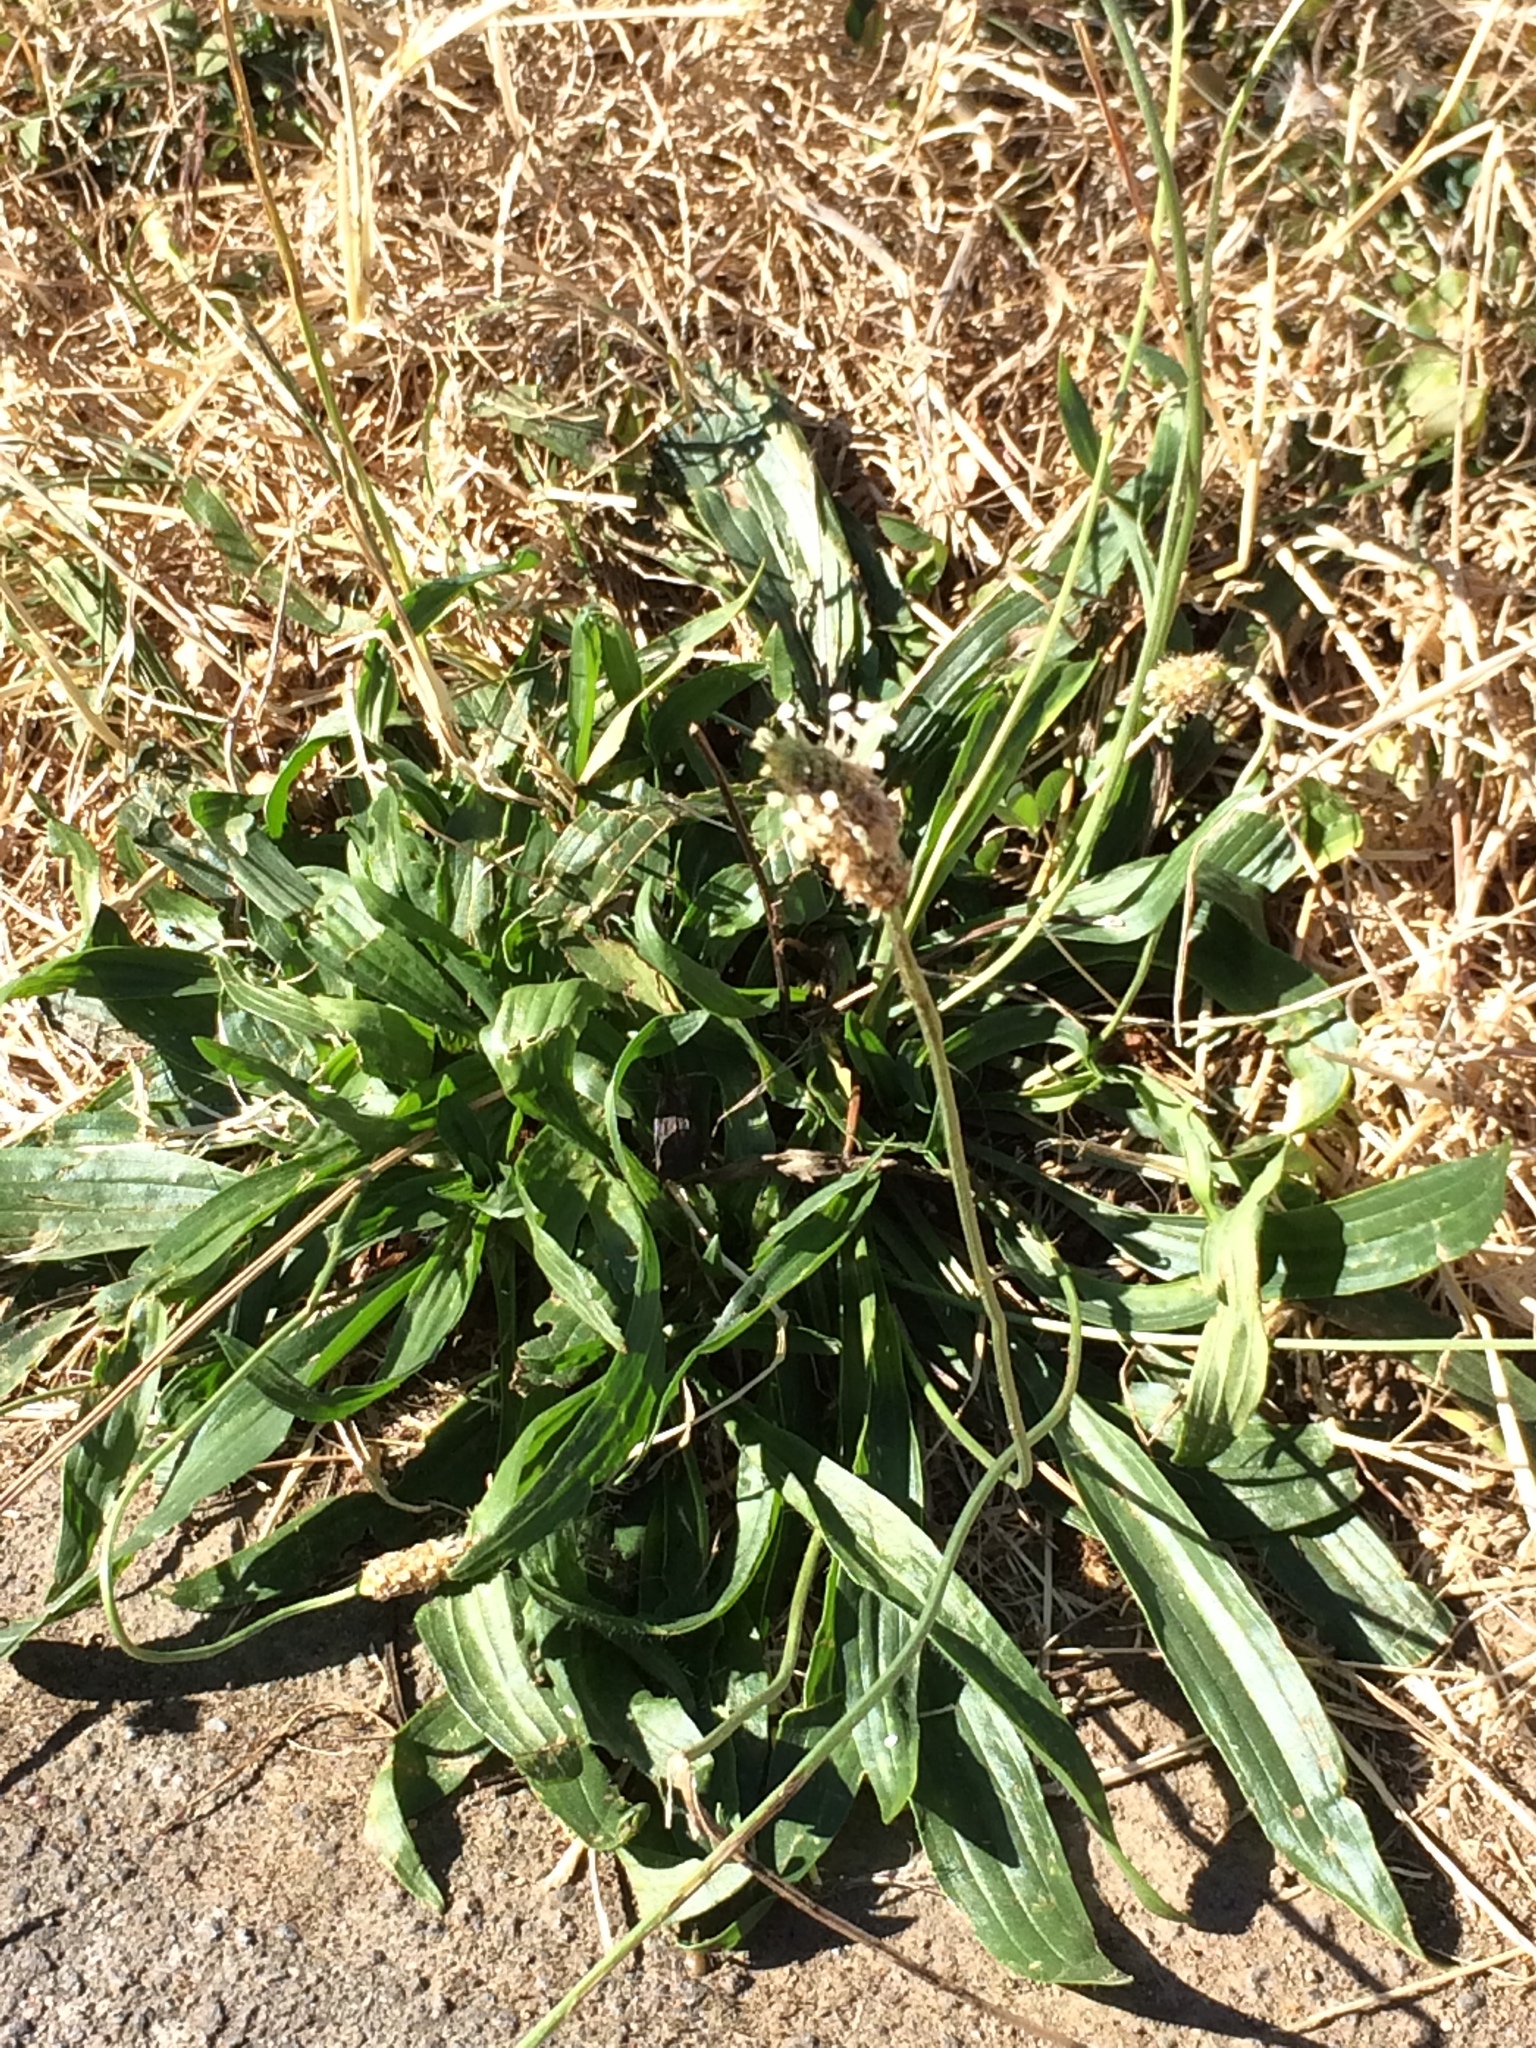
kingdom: Plantae
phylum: Tracheophyta
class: Magnoliopsida
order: Lamiales
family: Plantaginaceae
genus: Plantago
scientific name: Plantago lanceolata
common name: Ribwort plantain
